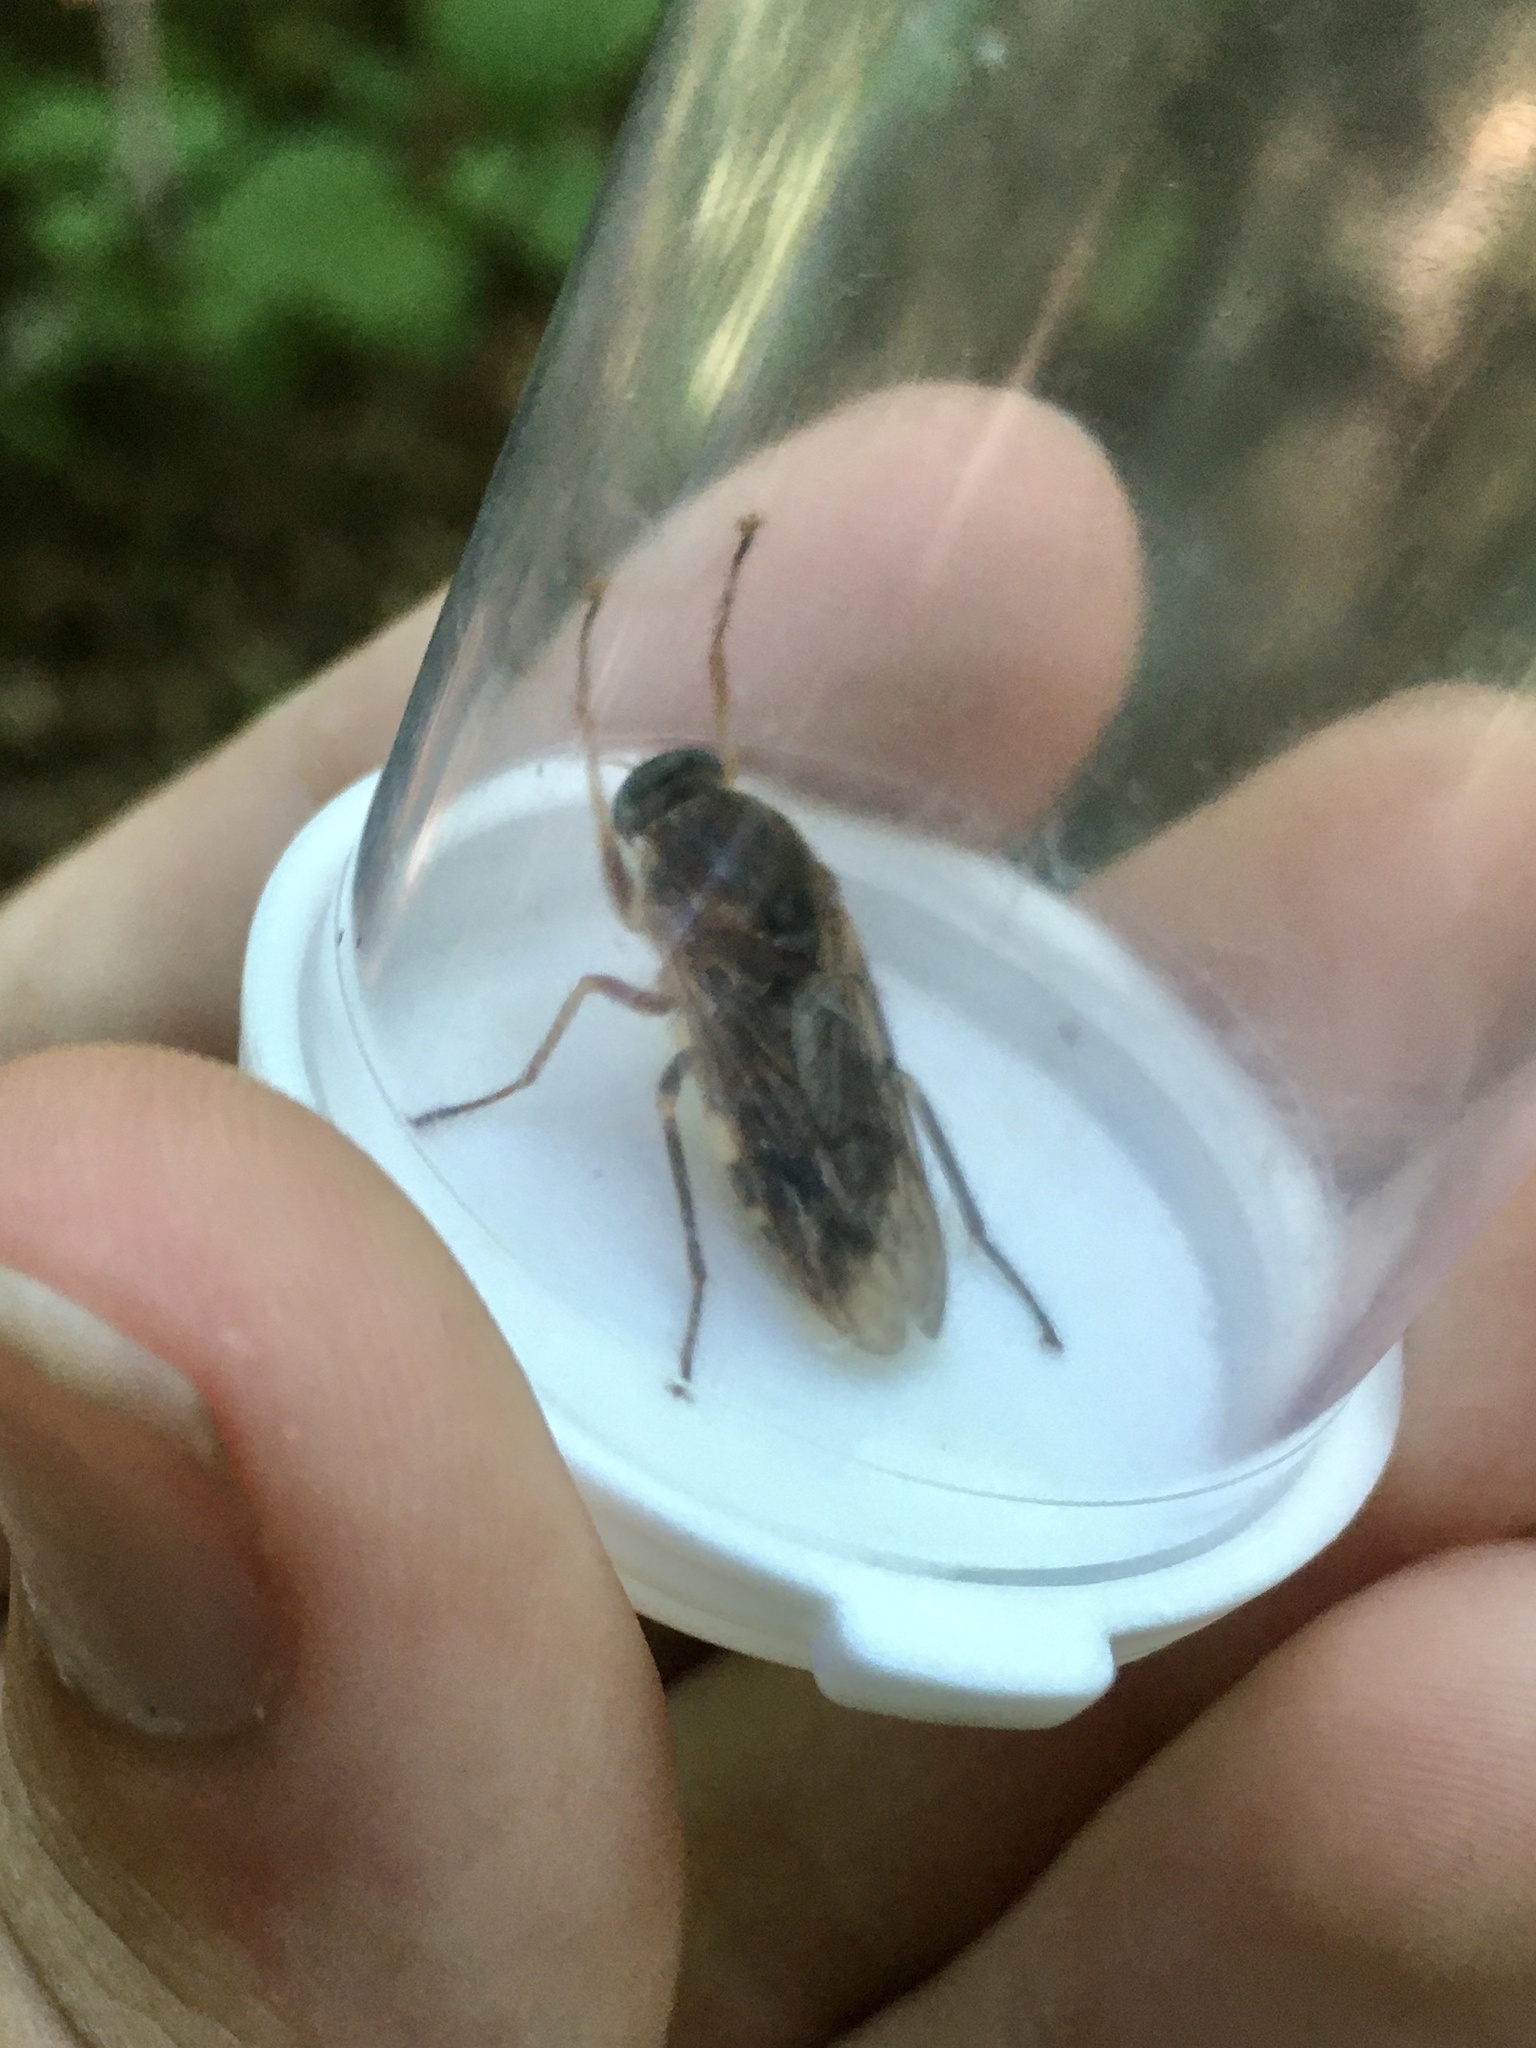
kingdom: Animalia
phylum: Arthropoda
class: Insecta
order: Diptera
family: Xylophagidae
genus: Coenomyia
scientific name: Coenomyia ferruginea
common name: Stink fly
